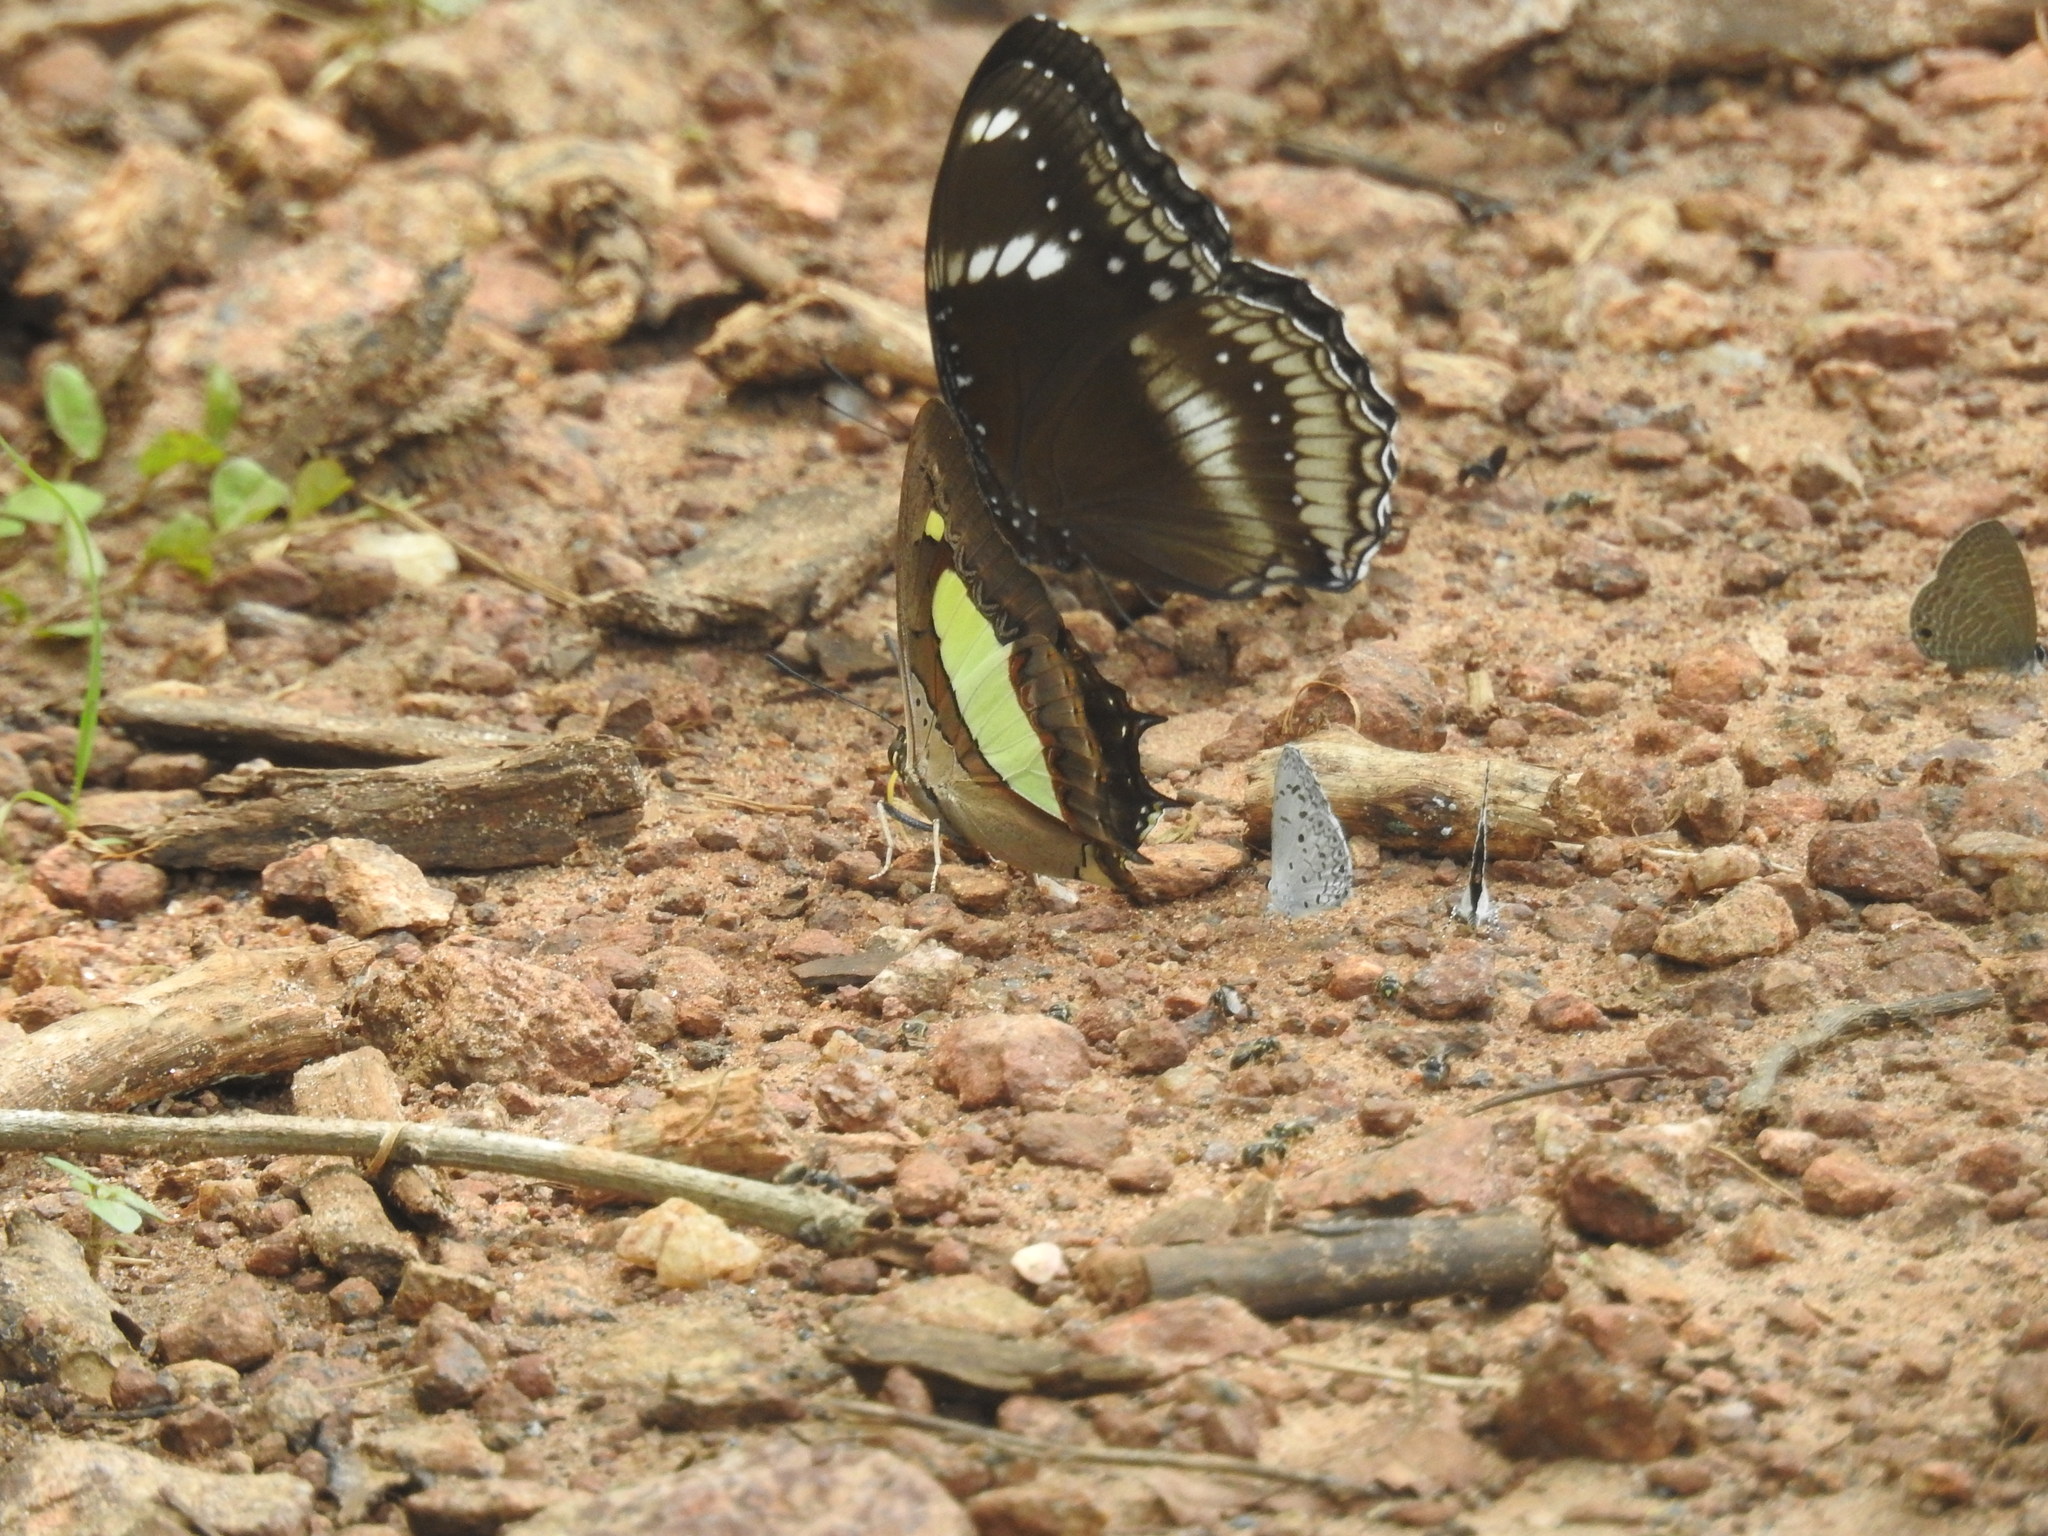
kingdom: Animalia
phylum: Arthropoda
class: Insecta
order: Lepidoptera
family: Nymphalidae
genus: Hypolimnas
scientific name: Hypolimnas bolina
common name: Great eggfly
